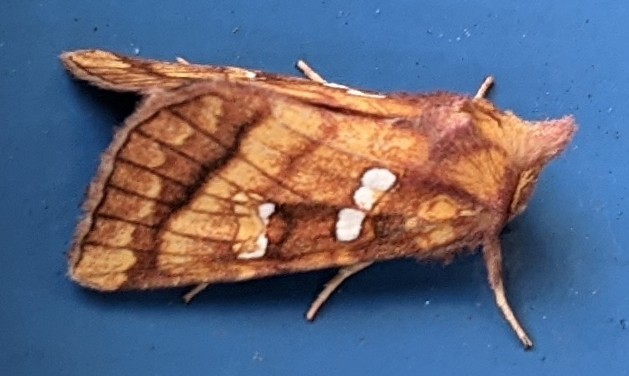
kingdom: Animalia
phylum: Arthropoda
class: Insecta
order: Lepidoptera
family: Noctuidae
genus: Papaipema
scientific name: Papaipema pterisii
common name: Bracken borer moth
